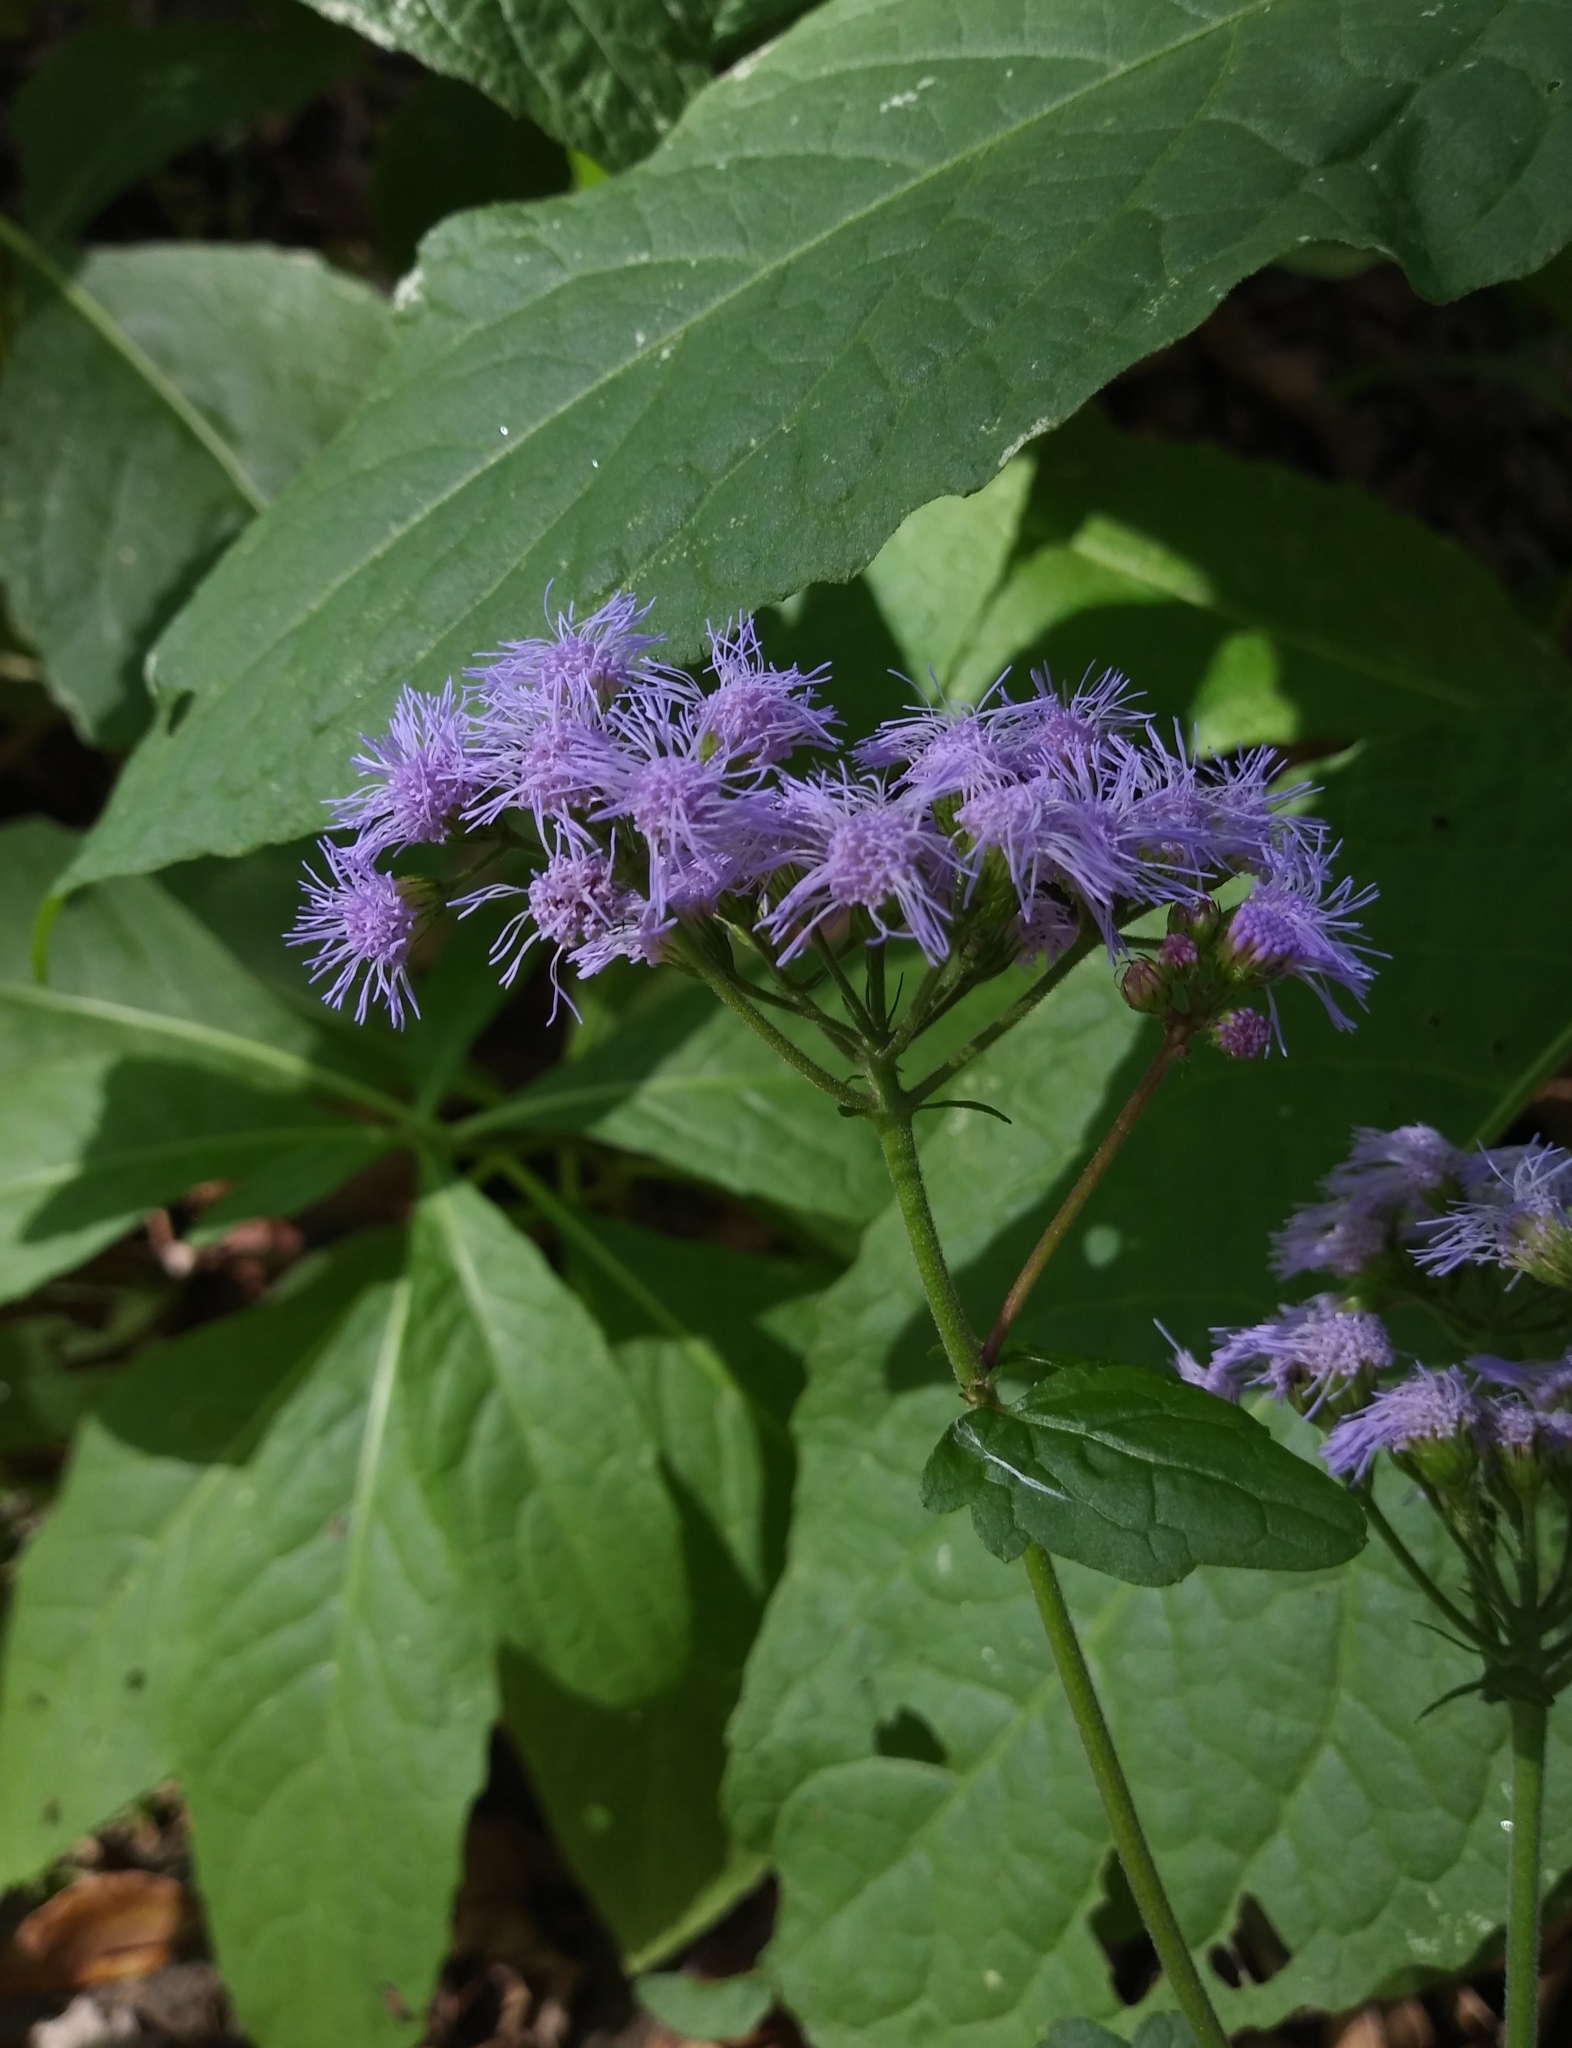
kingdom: Plantae
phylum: Tracheophyta
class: Magnoliopsida
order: Asterales
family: Asteraceae
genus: Conoclinium
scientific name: Conoclinium coelestinum
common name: Blue mistflower
